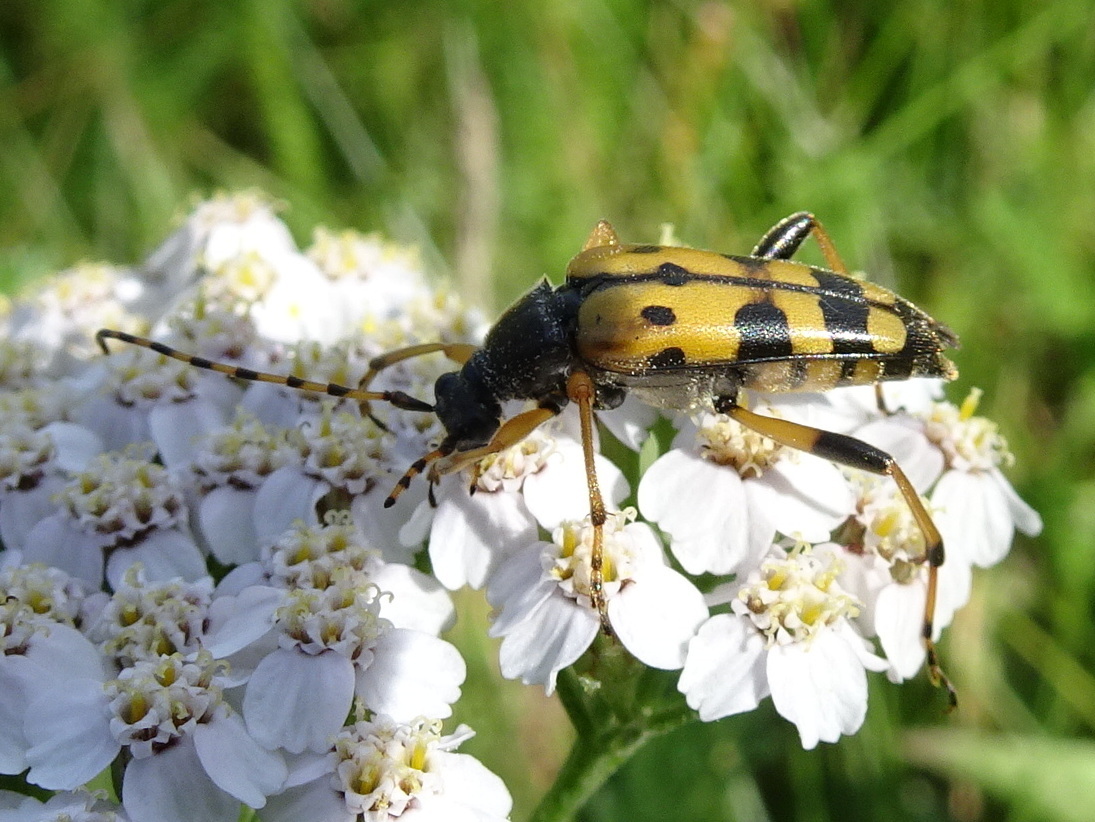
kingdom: Animalia
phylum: Arthropoda
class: Insecta
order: Coleoptera
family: Cerambycidae
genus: Rutpela
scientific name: Rutpela maculata
